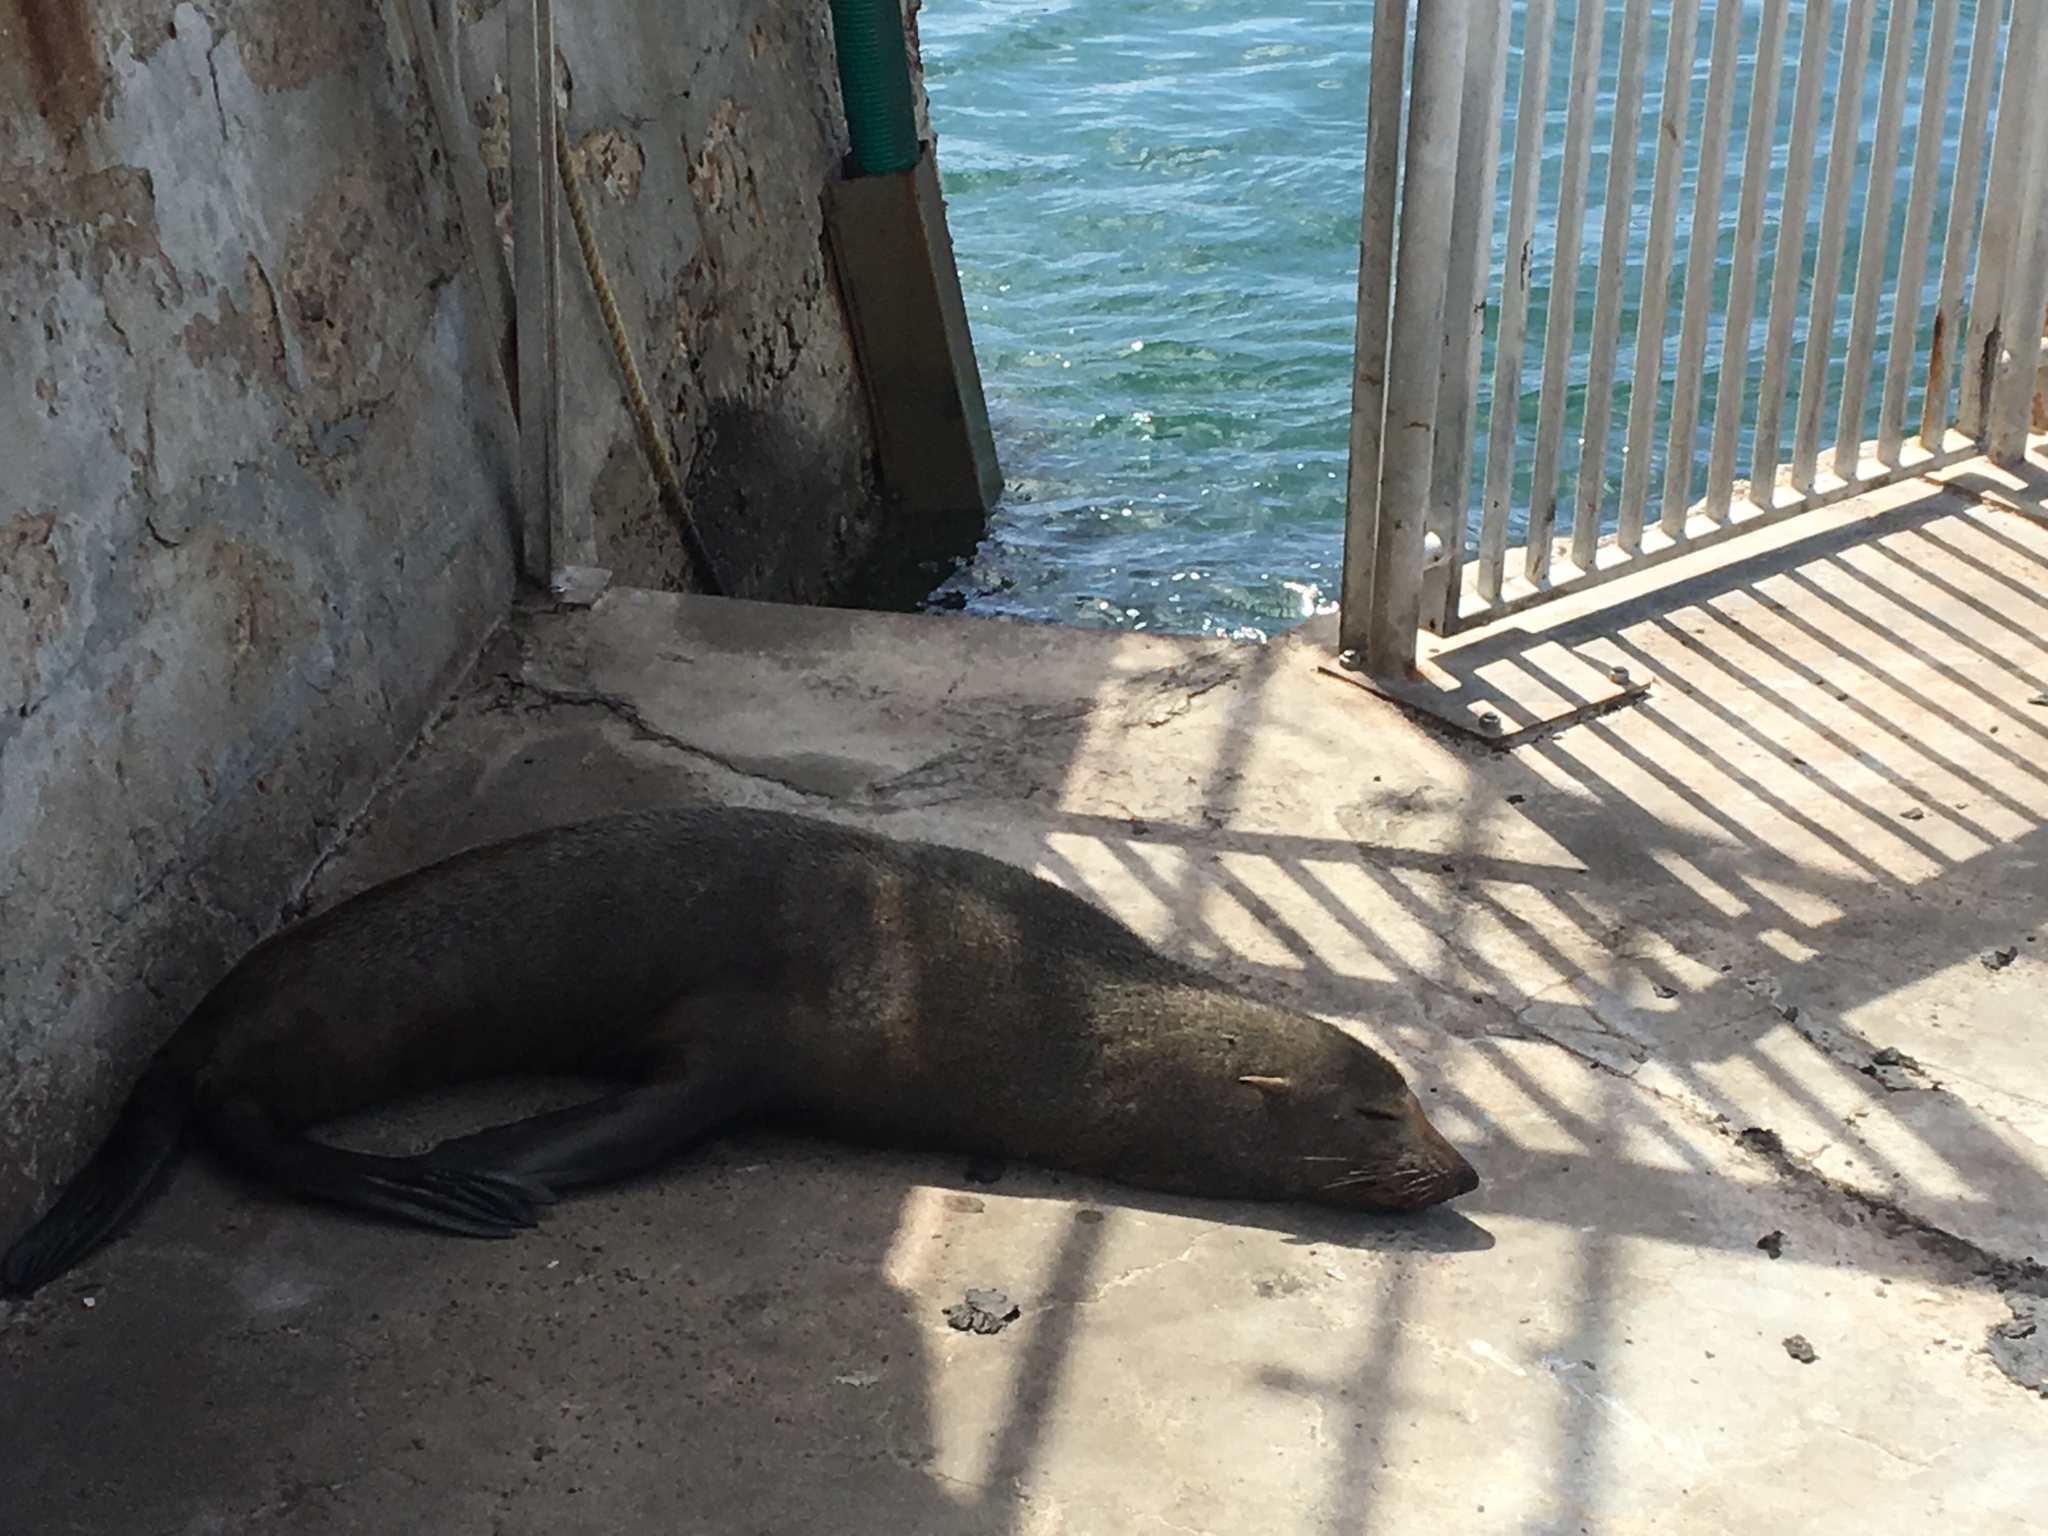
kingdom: Animalia
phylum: Chordata
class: Mammalia
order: Carnivora
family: Otariidae
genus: Arctocephalus
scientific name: Arctocephalus pusillus
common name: Brown fur seal
